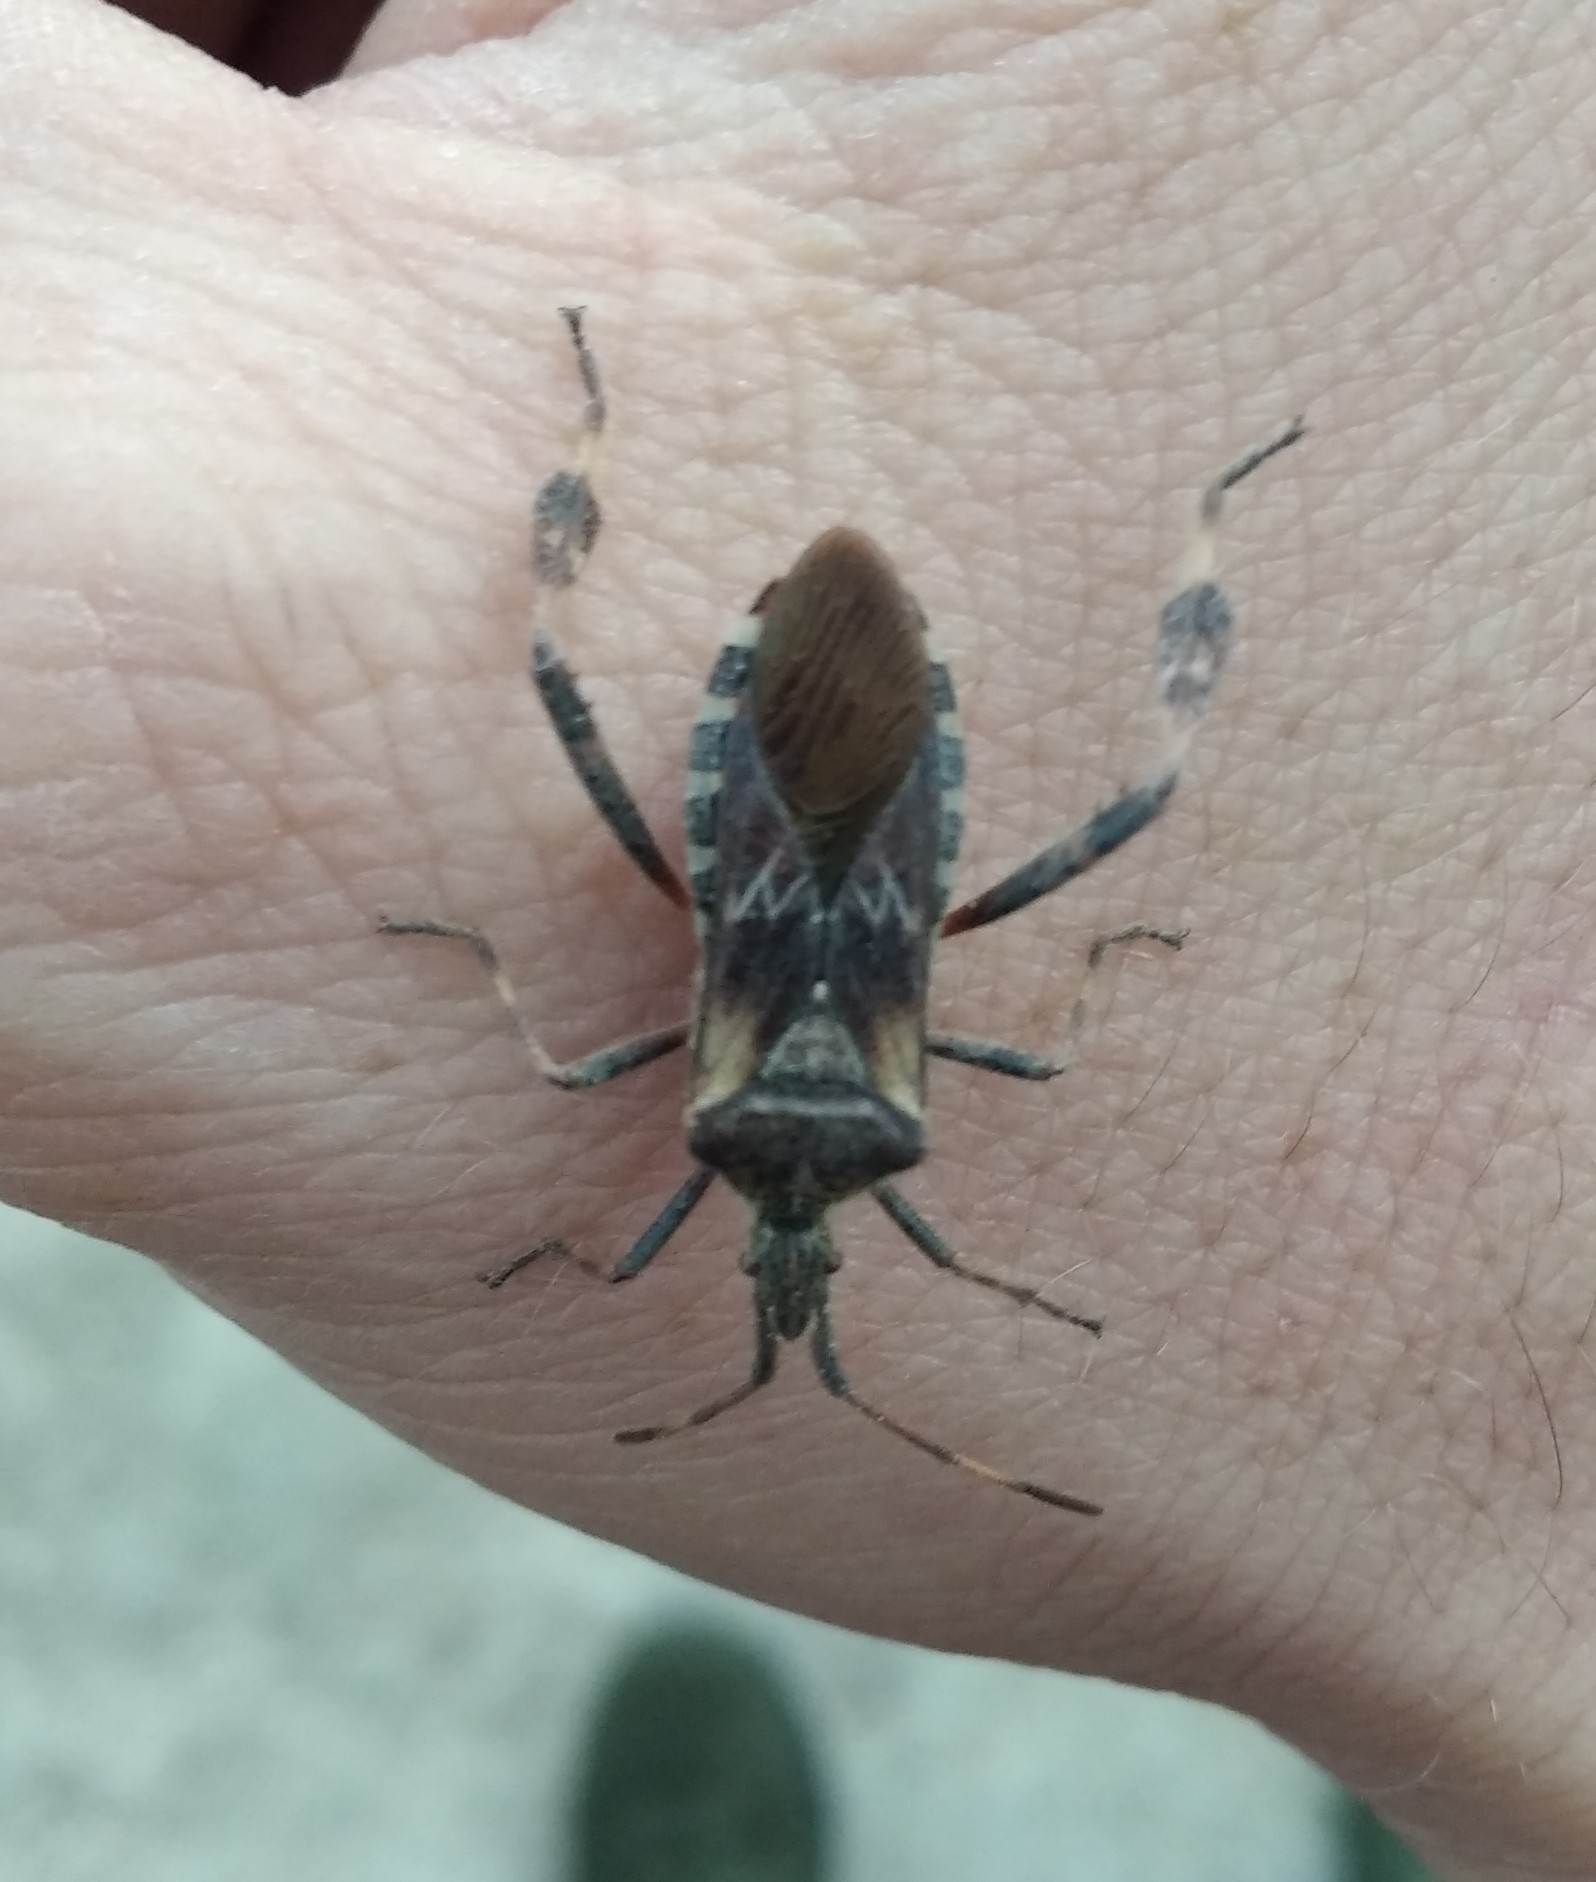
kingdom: Animalia
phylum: Arthropoda
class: Insecta
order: Hemiptera
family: Coreidae
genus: Leptoglossus
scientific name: Leptoglossus occidentalis
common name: Western conifer-seed bug
